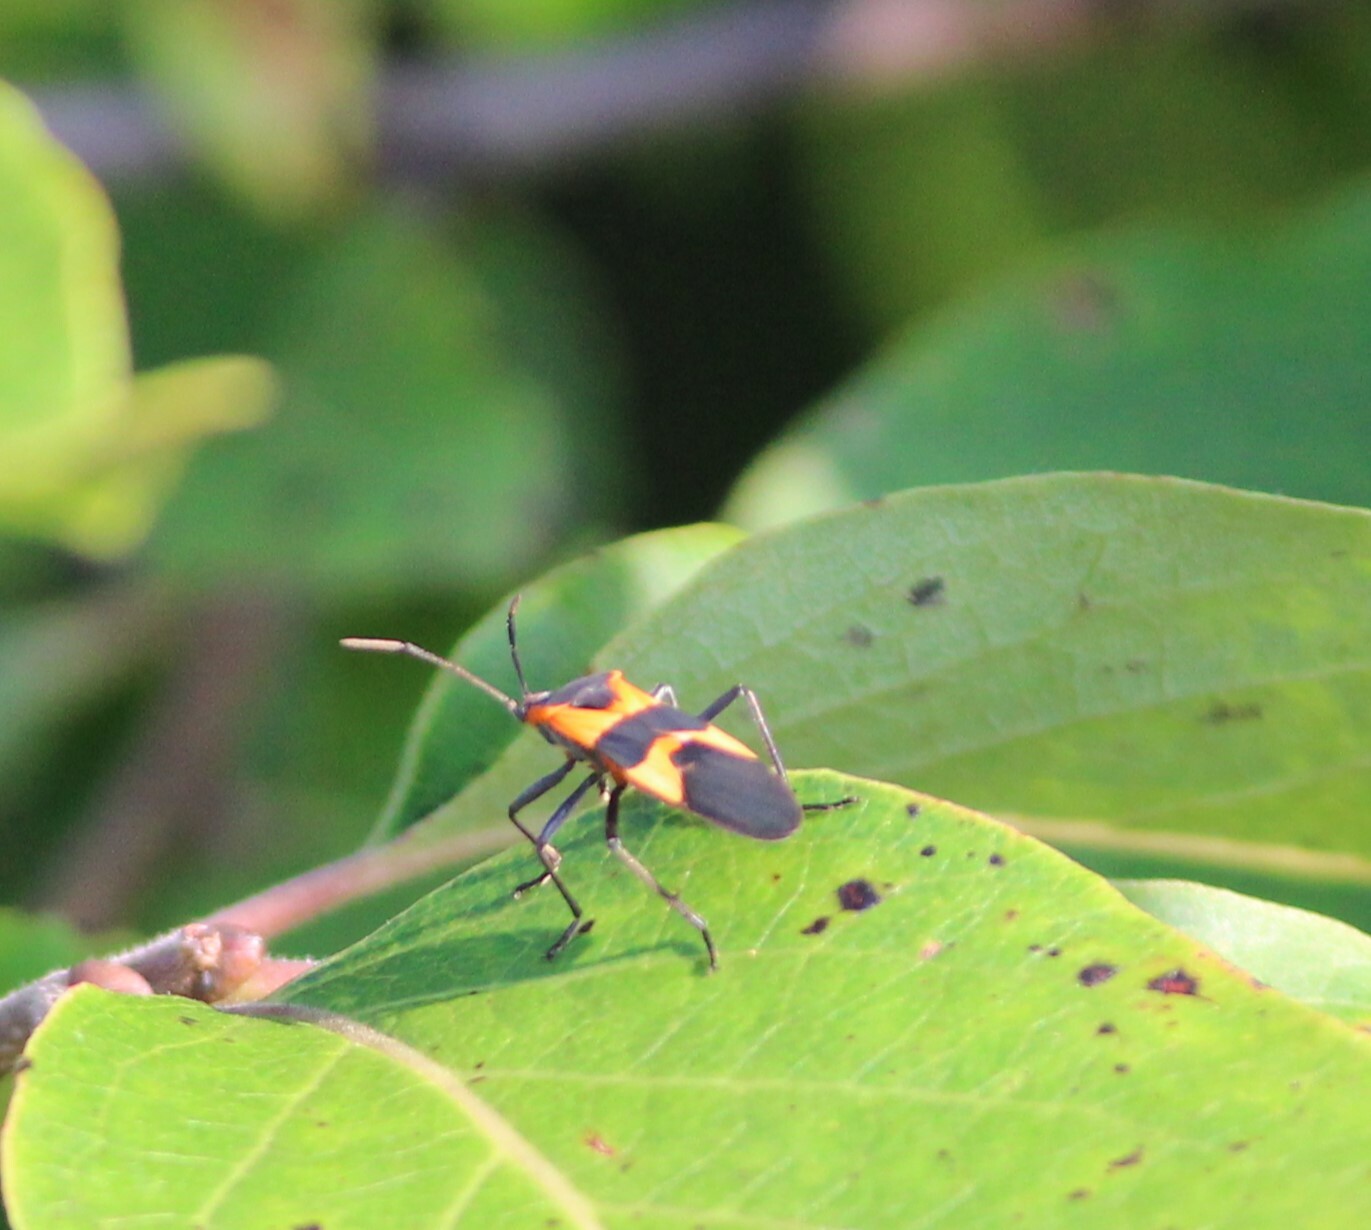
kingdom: Animalia
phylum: Arthropoda
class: Insecta
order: Hemiptera
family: Lygaeidae
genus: Oncopeltus
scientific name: Oncopeltus fasciatus
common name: Large milkweed bug
